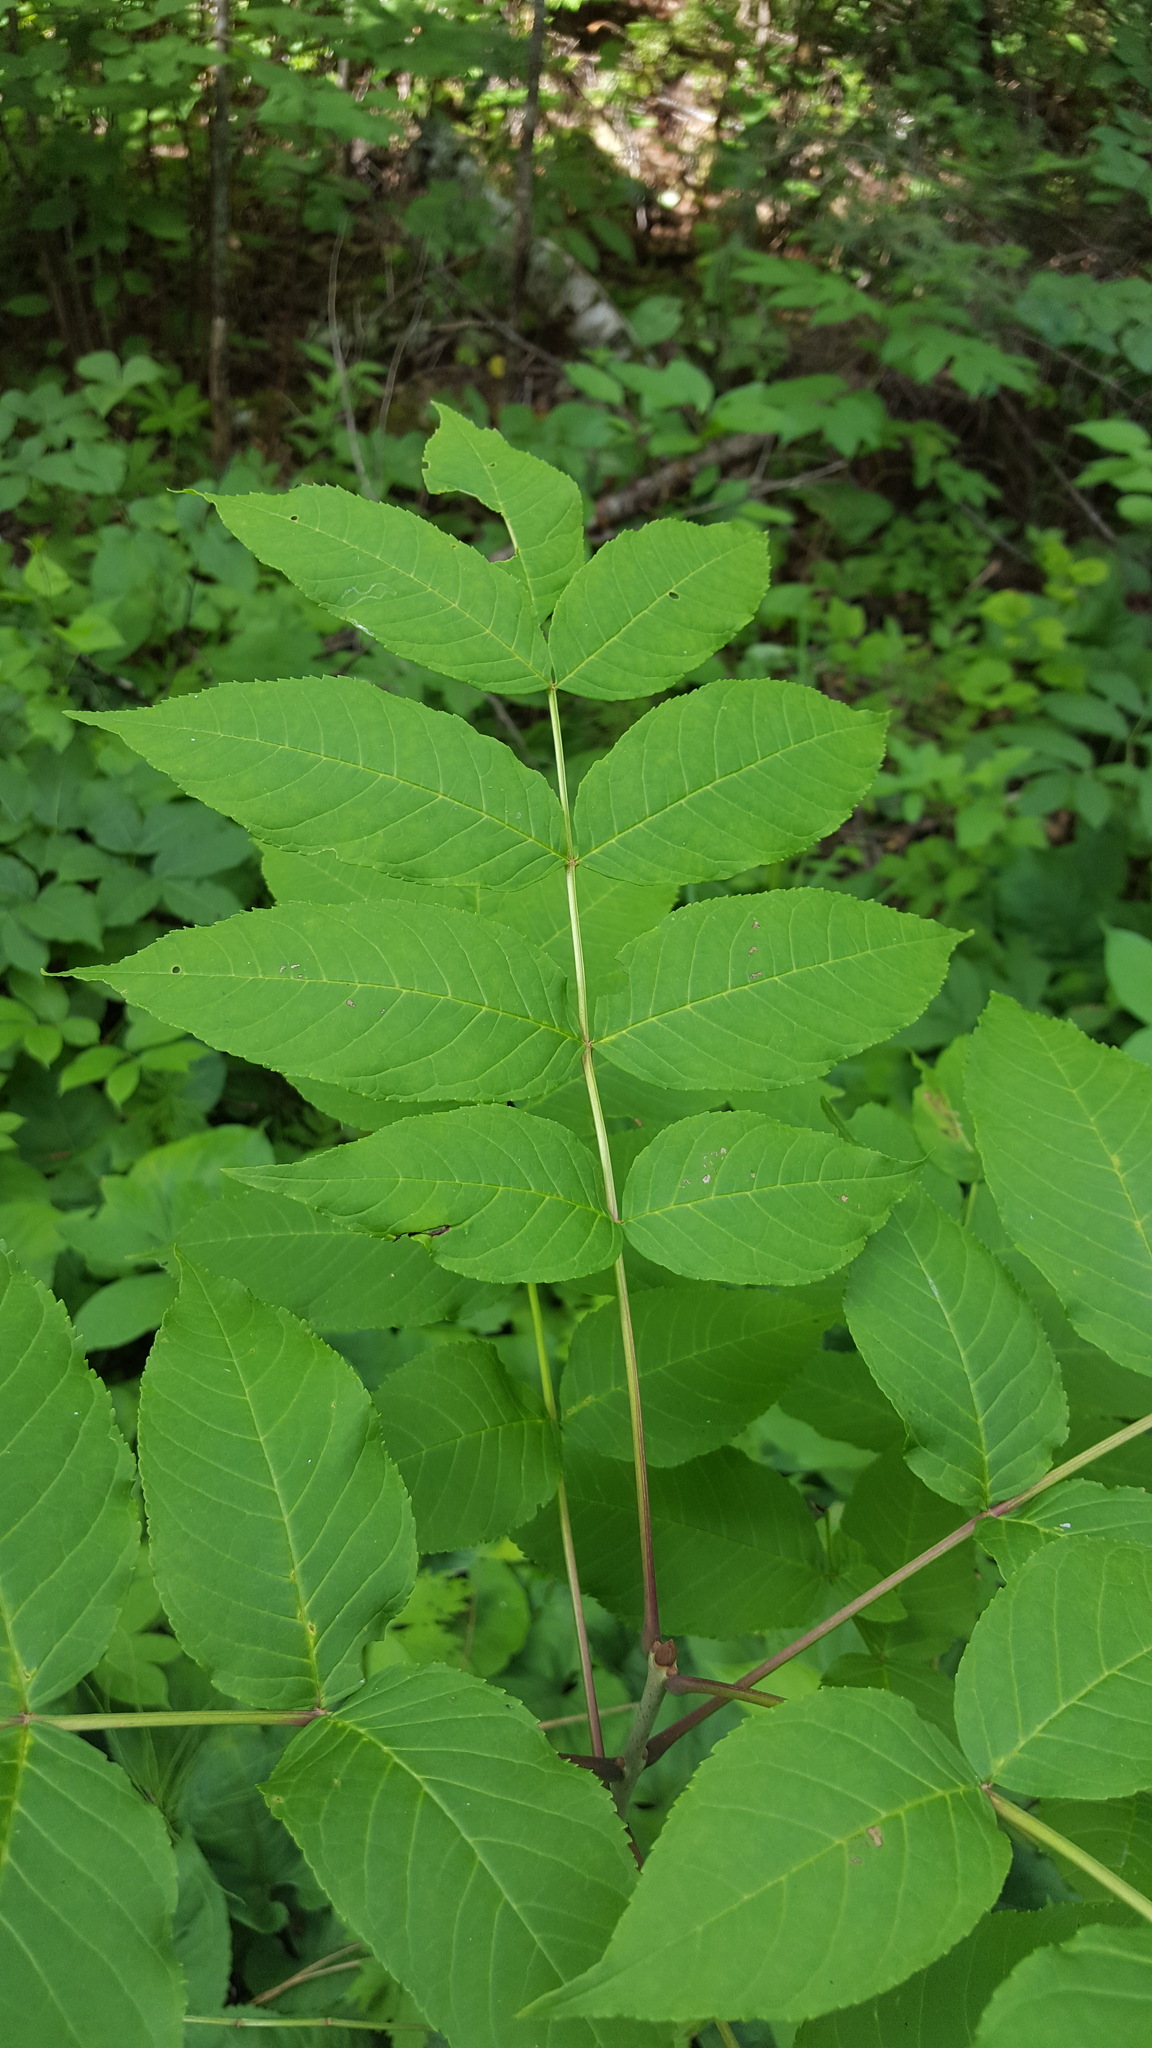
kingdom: Plantae
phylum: Tracheophyta
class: Magnoliopsida
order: Lamiales
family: Oleaceae
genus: Fraxinus
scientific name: Fraxinus nigra
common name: Black ash
